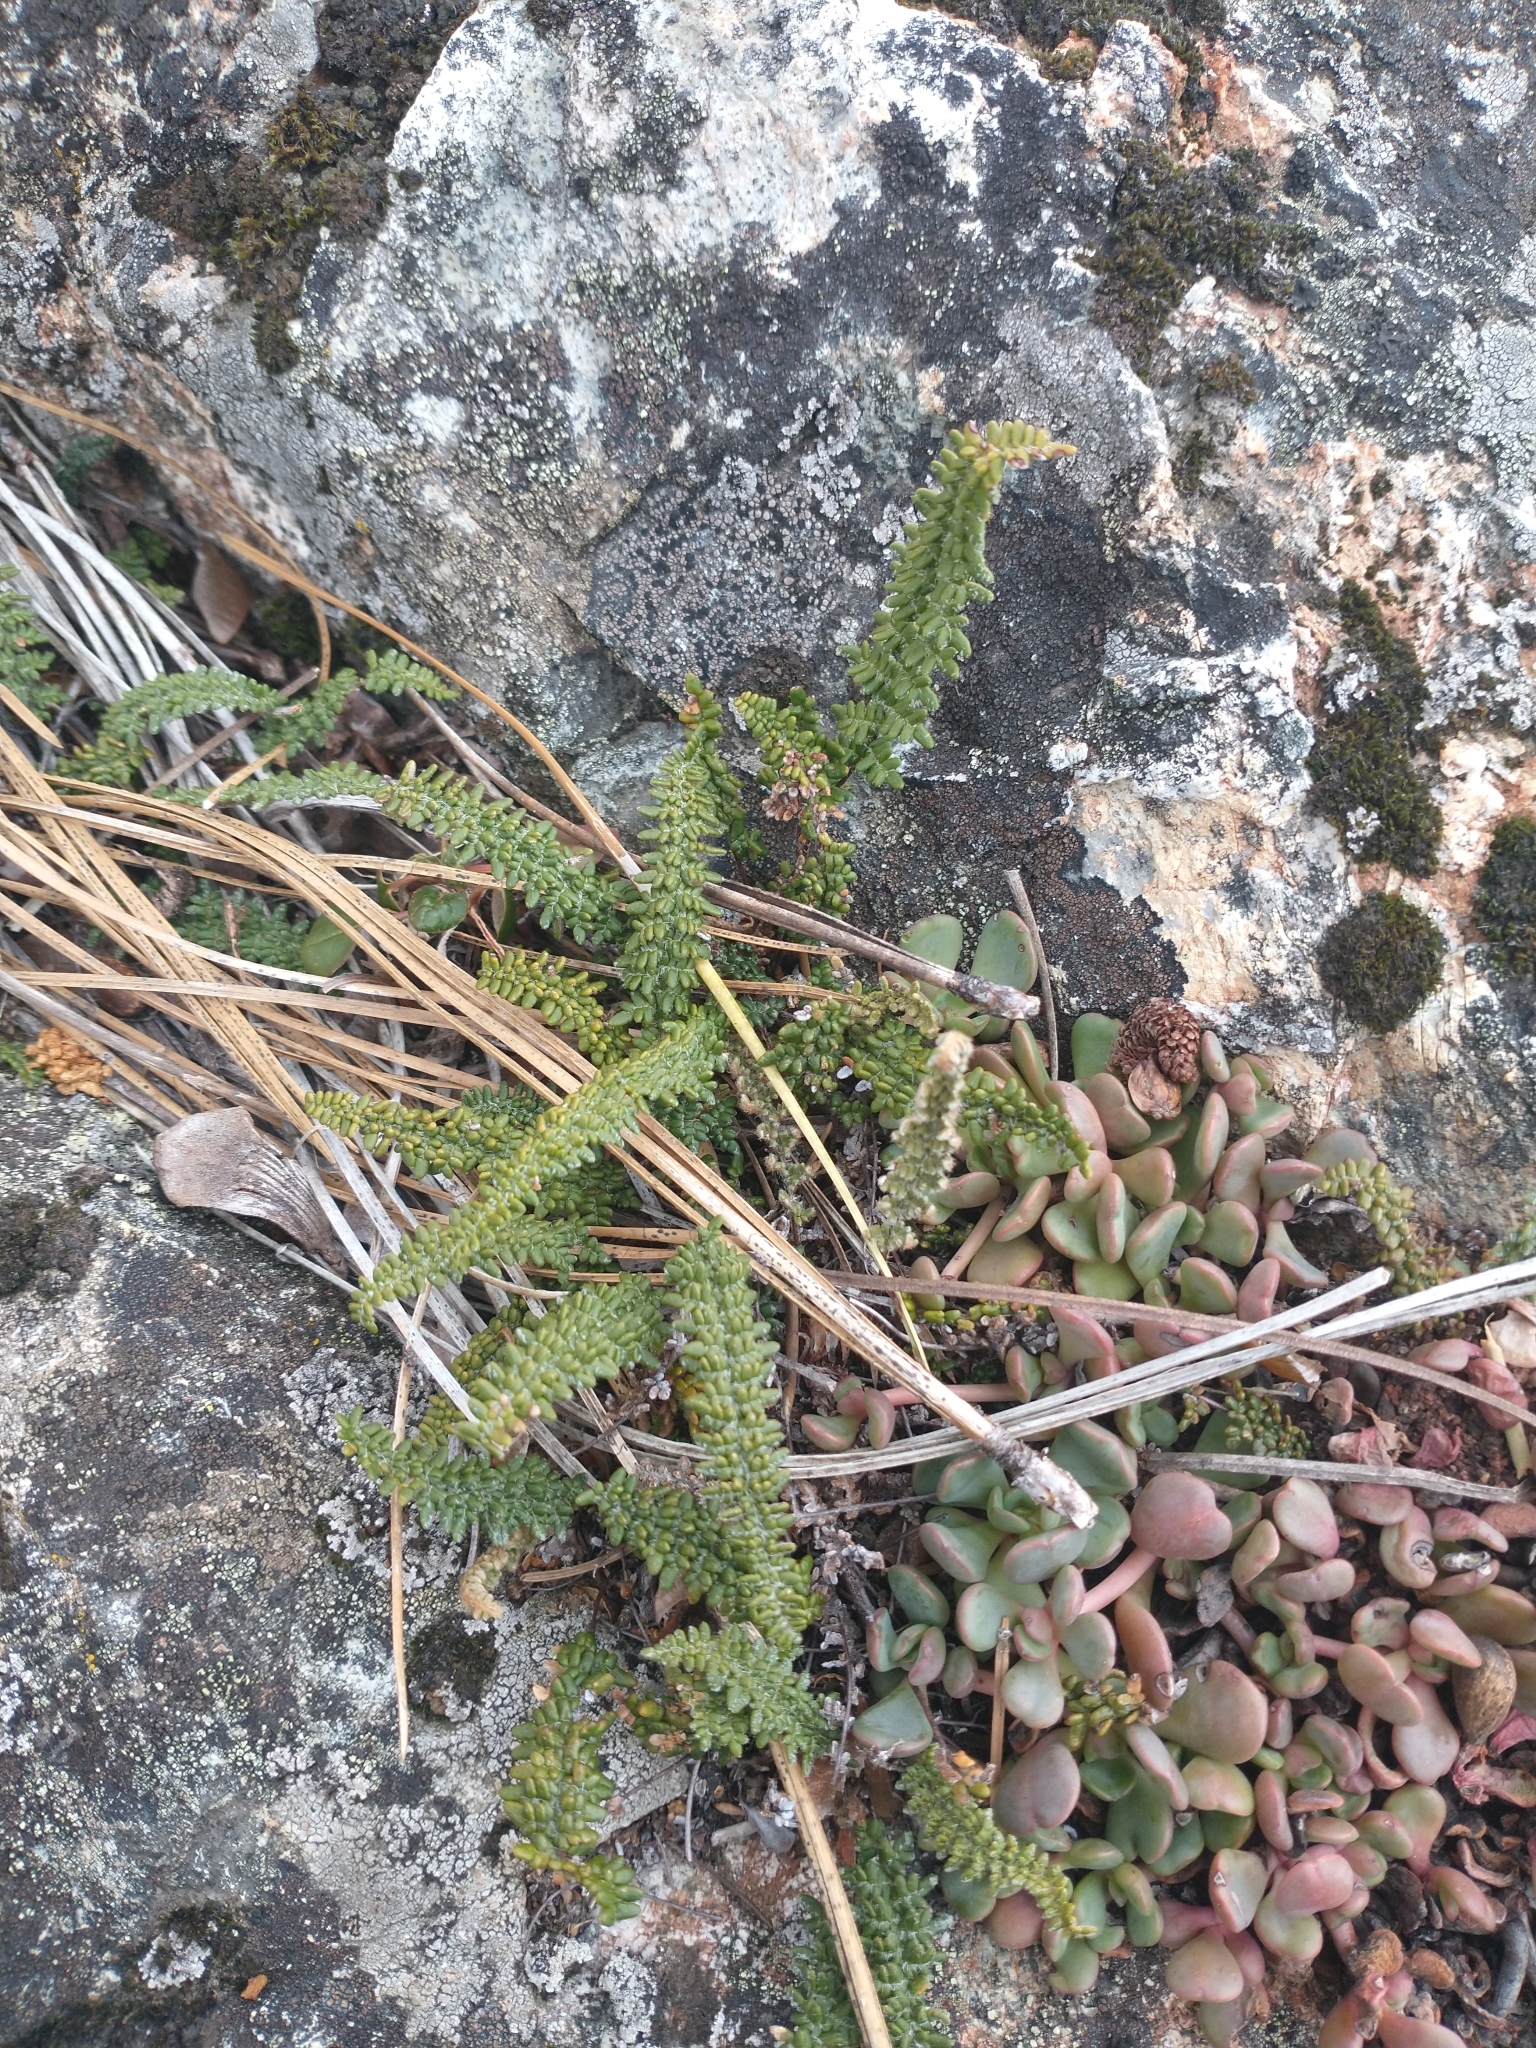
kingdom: Plantae
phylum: Tracheophyta
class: Polypodiopsida
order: Polypodiales
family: Pteridaceae
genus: Myriopteris
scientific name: Myriopteris gracillima
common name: Lace fern
